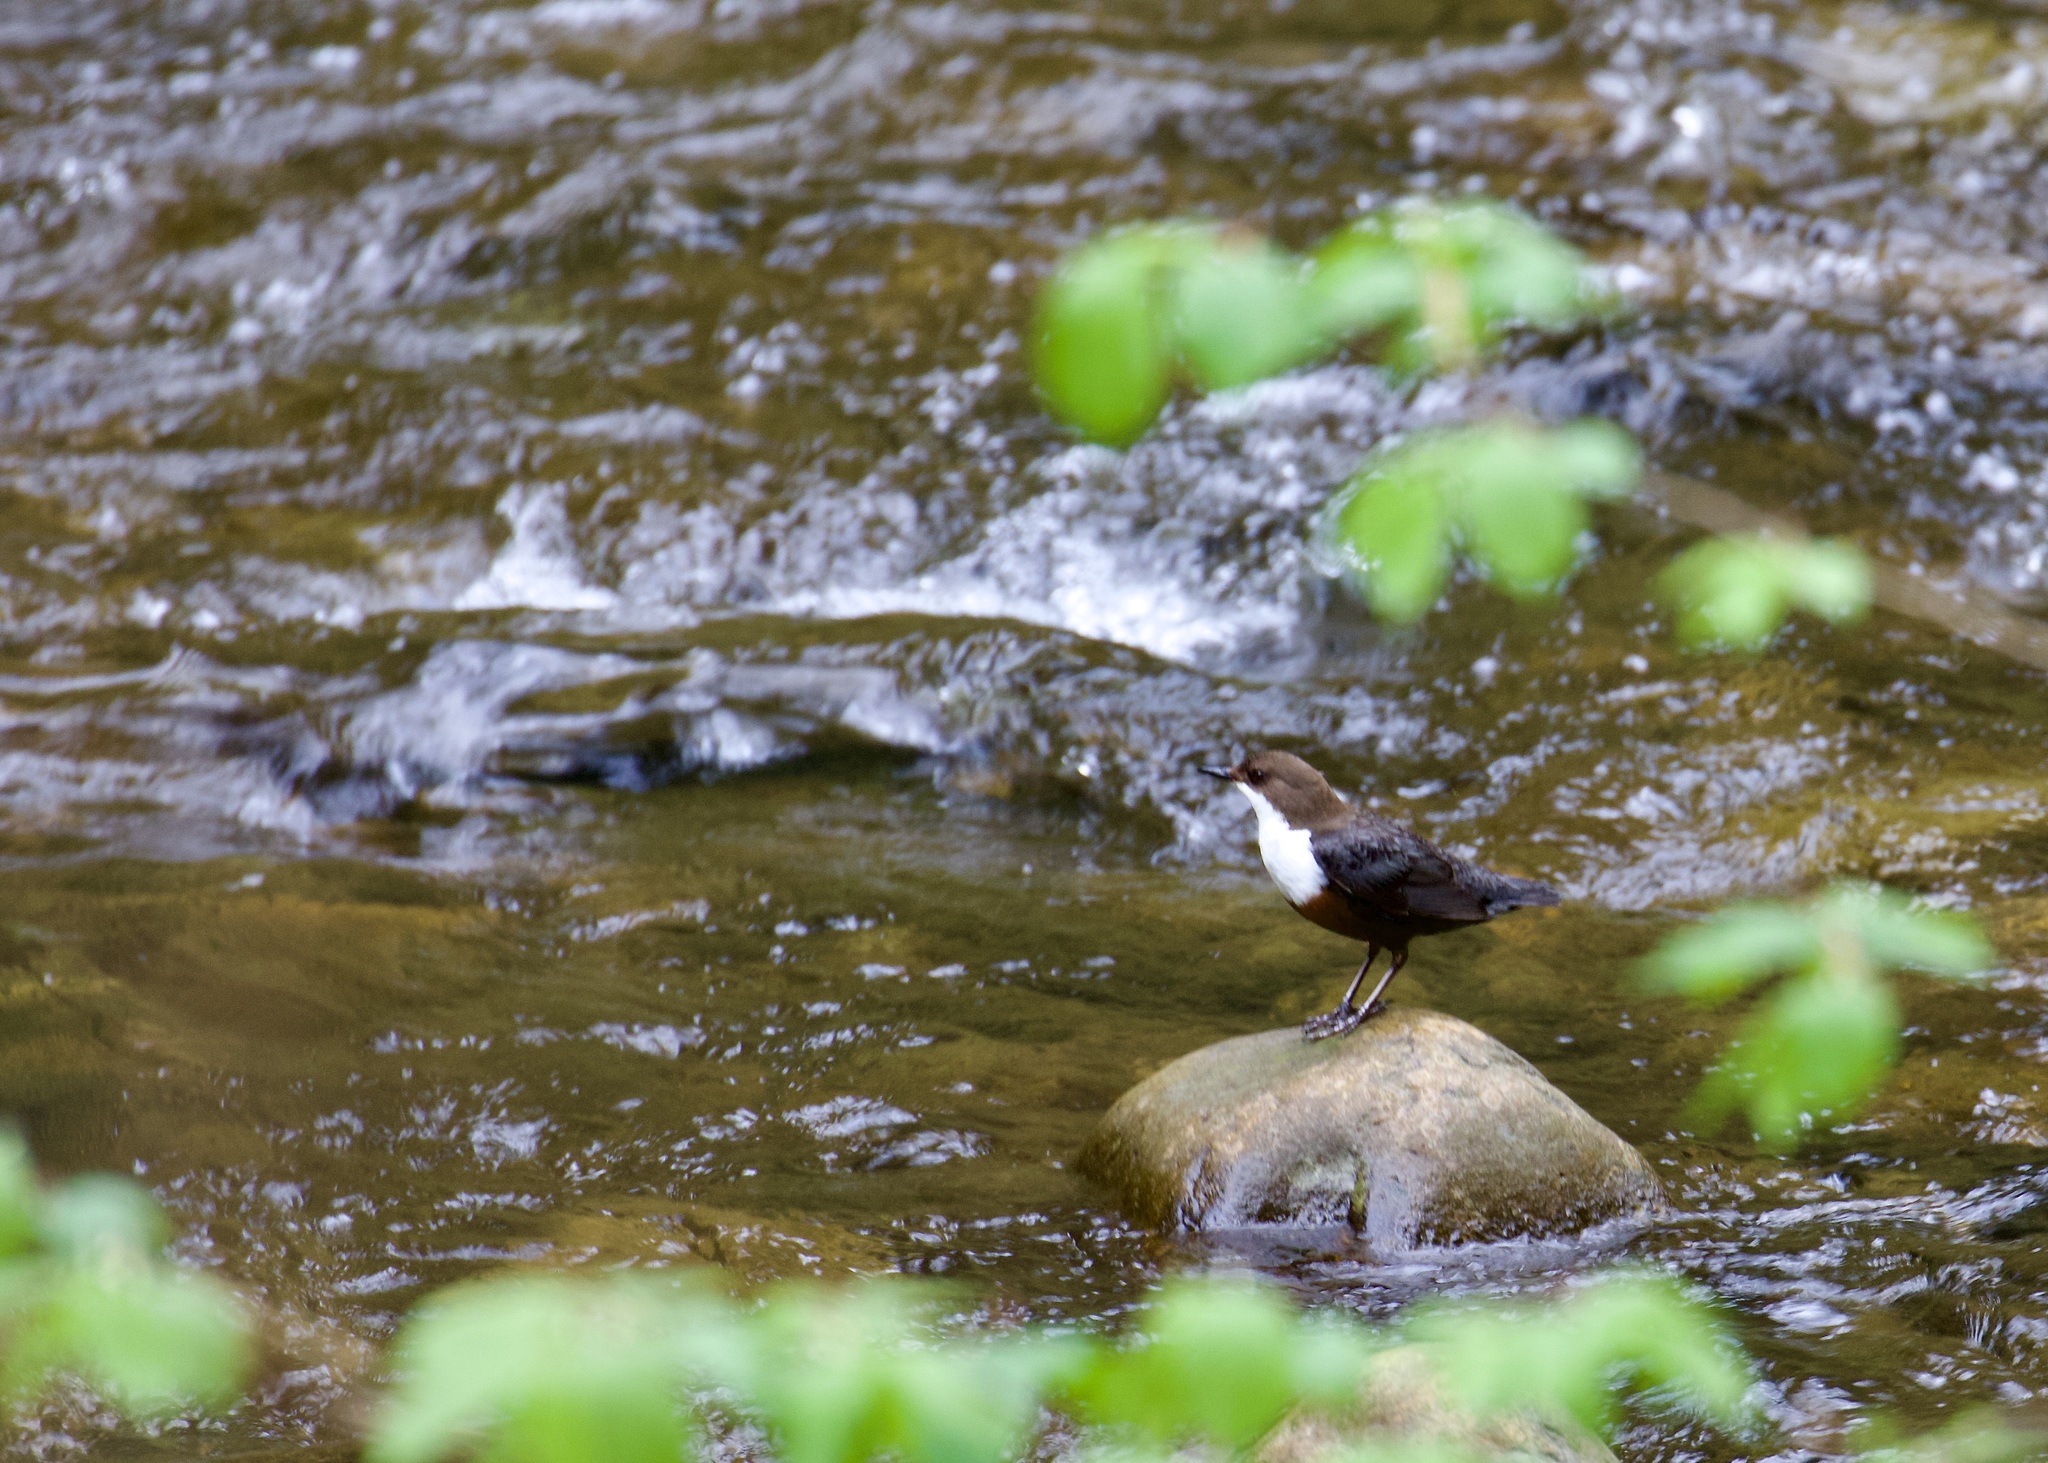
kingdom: Animalia
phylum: Chordata
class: Aves
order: Passeriformes
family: Cinclidae
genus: Cinclus
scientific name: Cinclus cinclus
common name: White-throated dipper
